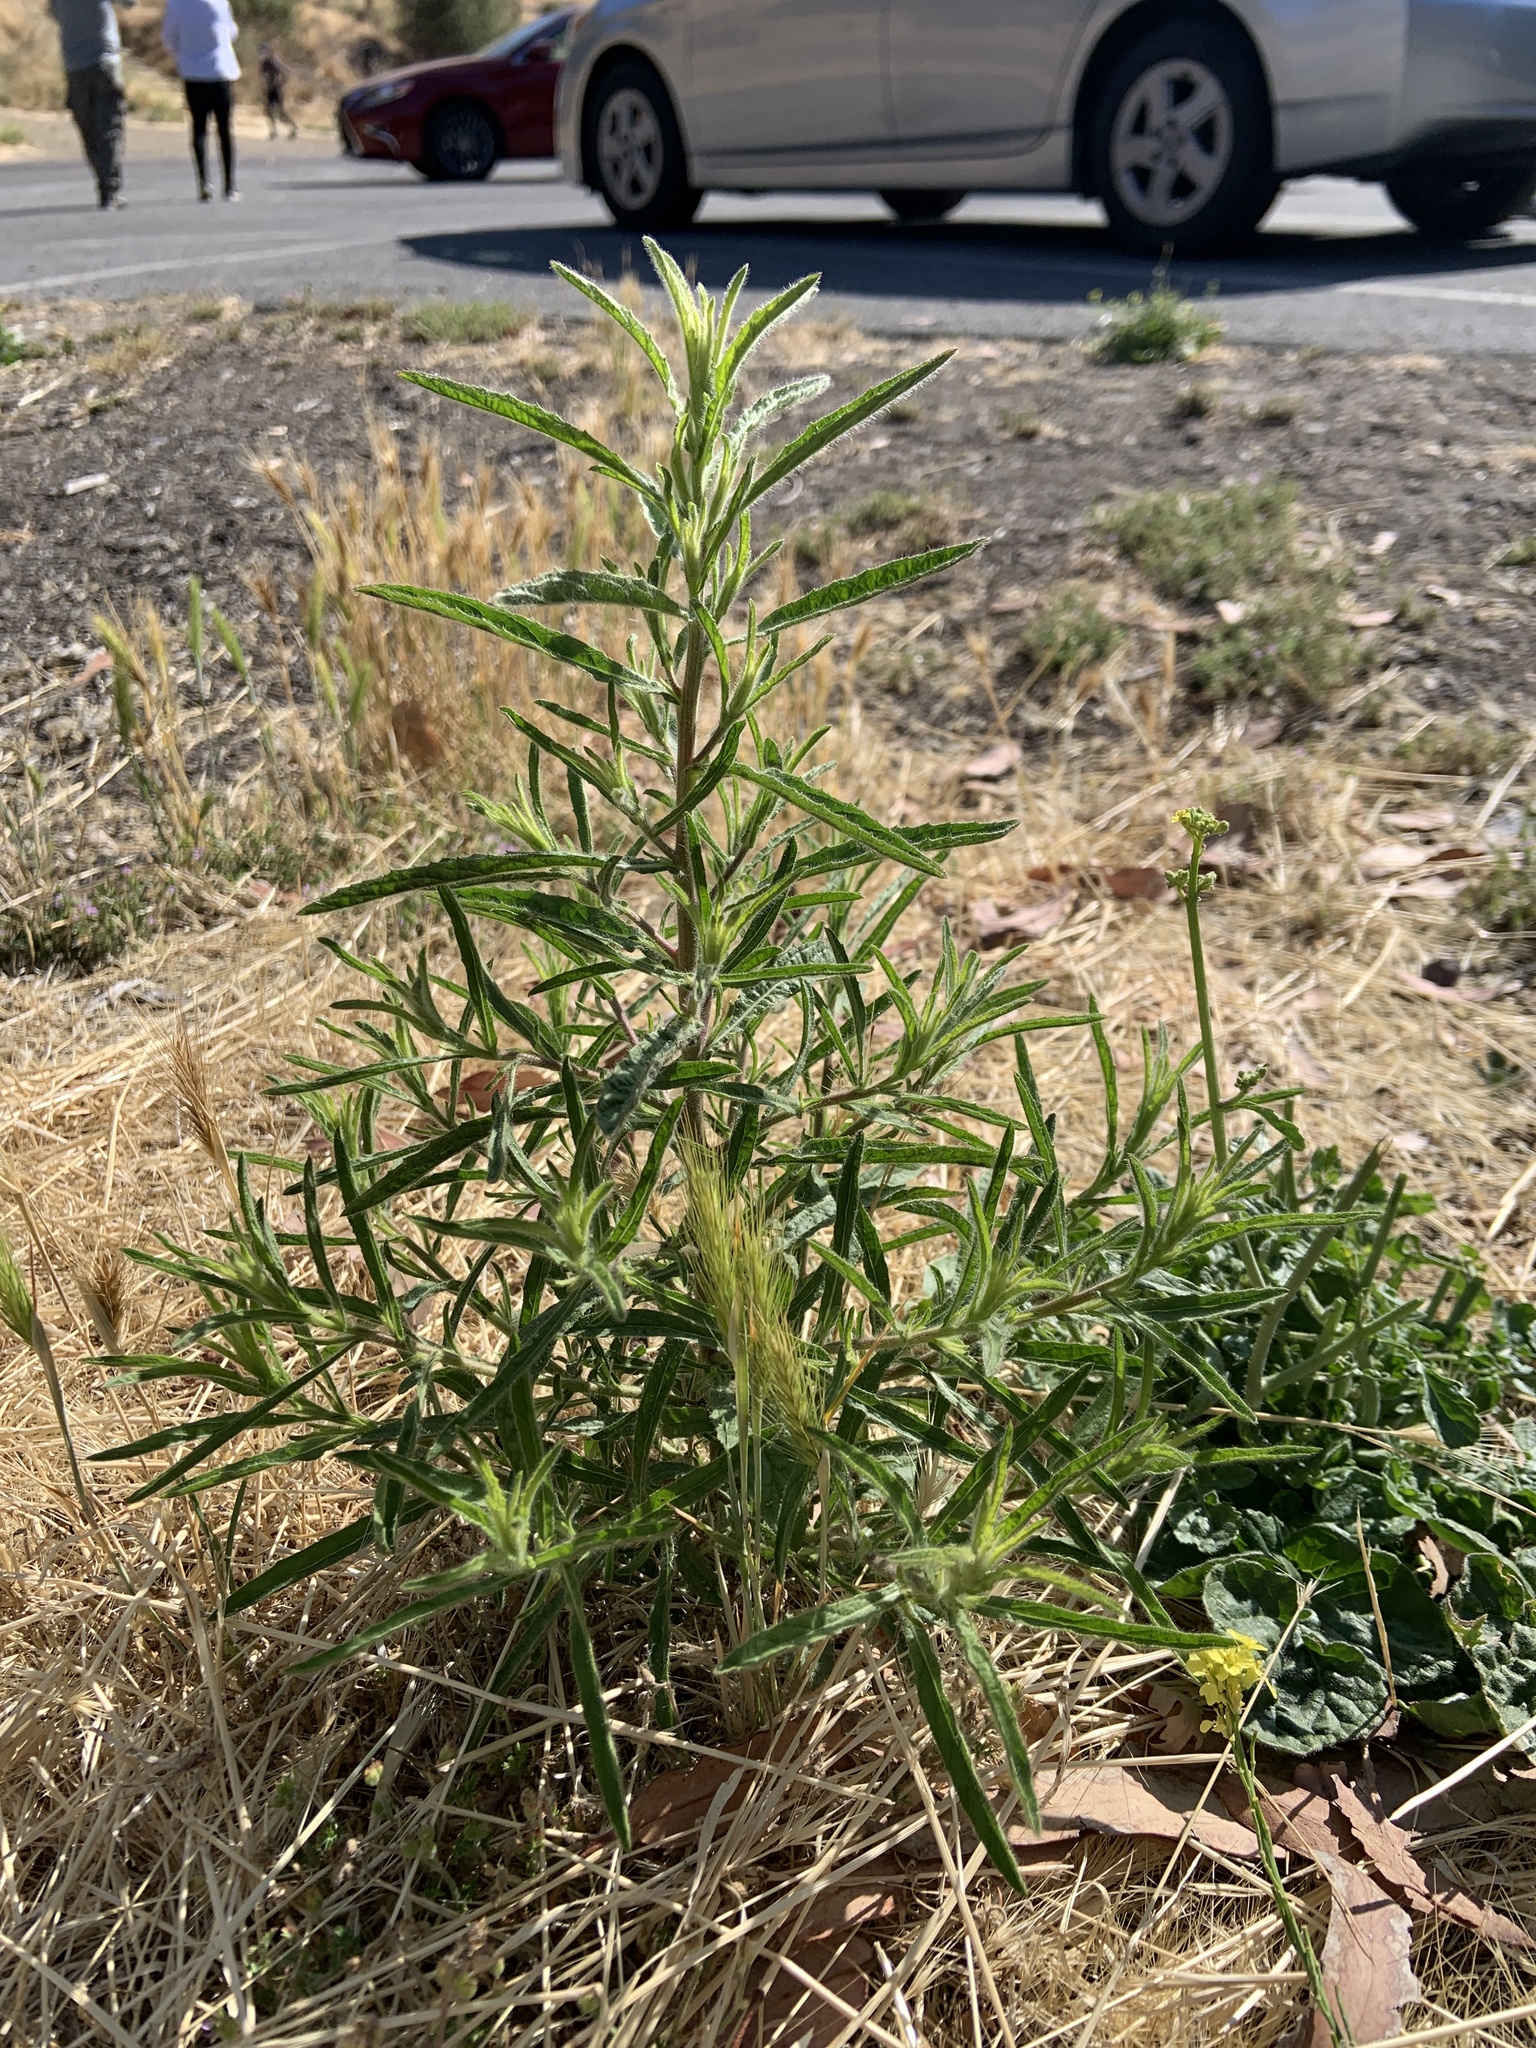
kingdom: Plantae
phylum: Tracheophyta
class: Magnoliopsida
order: Asterales
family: Asteraceae
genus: Dittrichia
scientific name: Dittrichia graveolens
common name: Stinking fleabane
